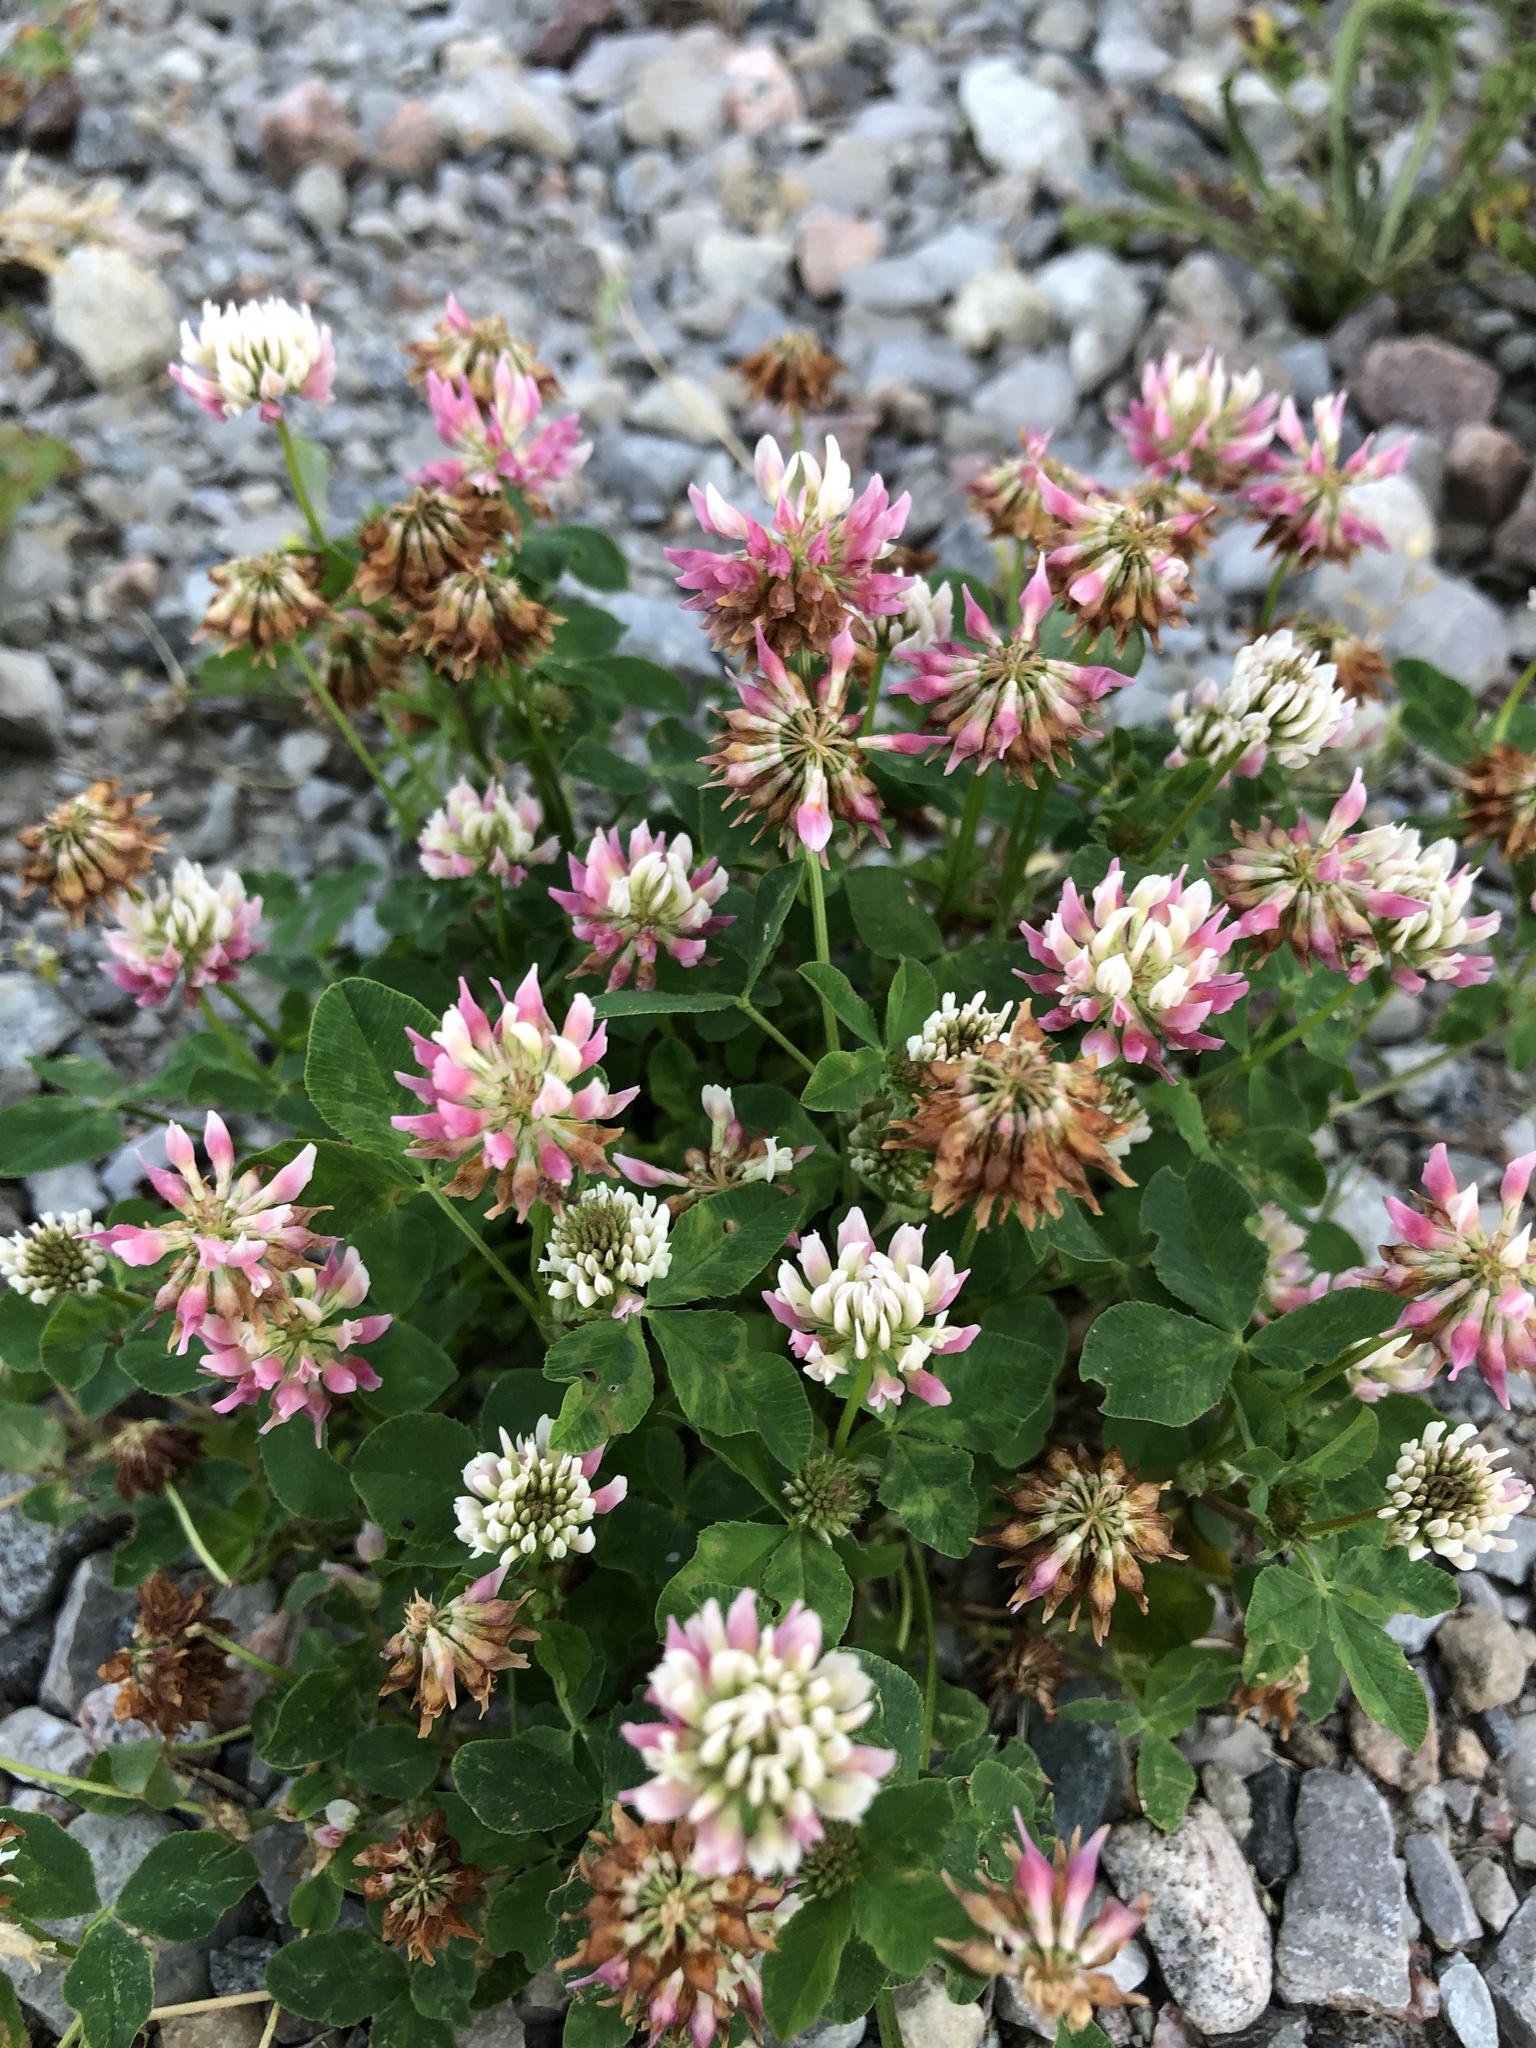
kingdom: Plantae
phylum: Tracheophyta
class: Magnoliopsida
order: Fabales
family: Fabaceae
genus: Trifolium
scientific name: Trifolium hybridum
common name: Alsike clover
